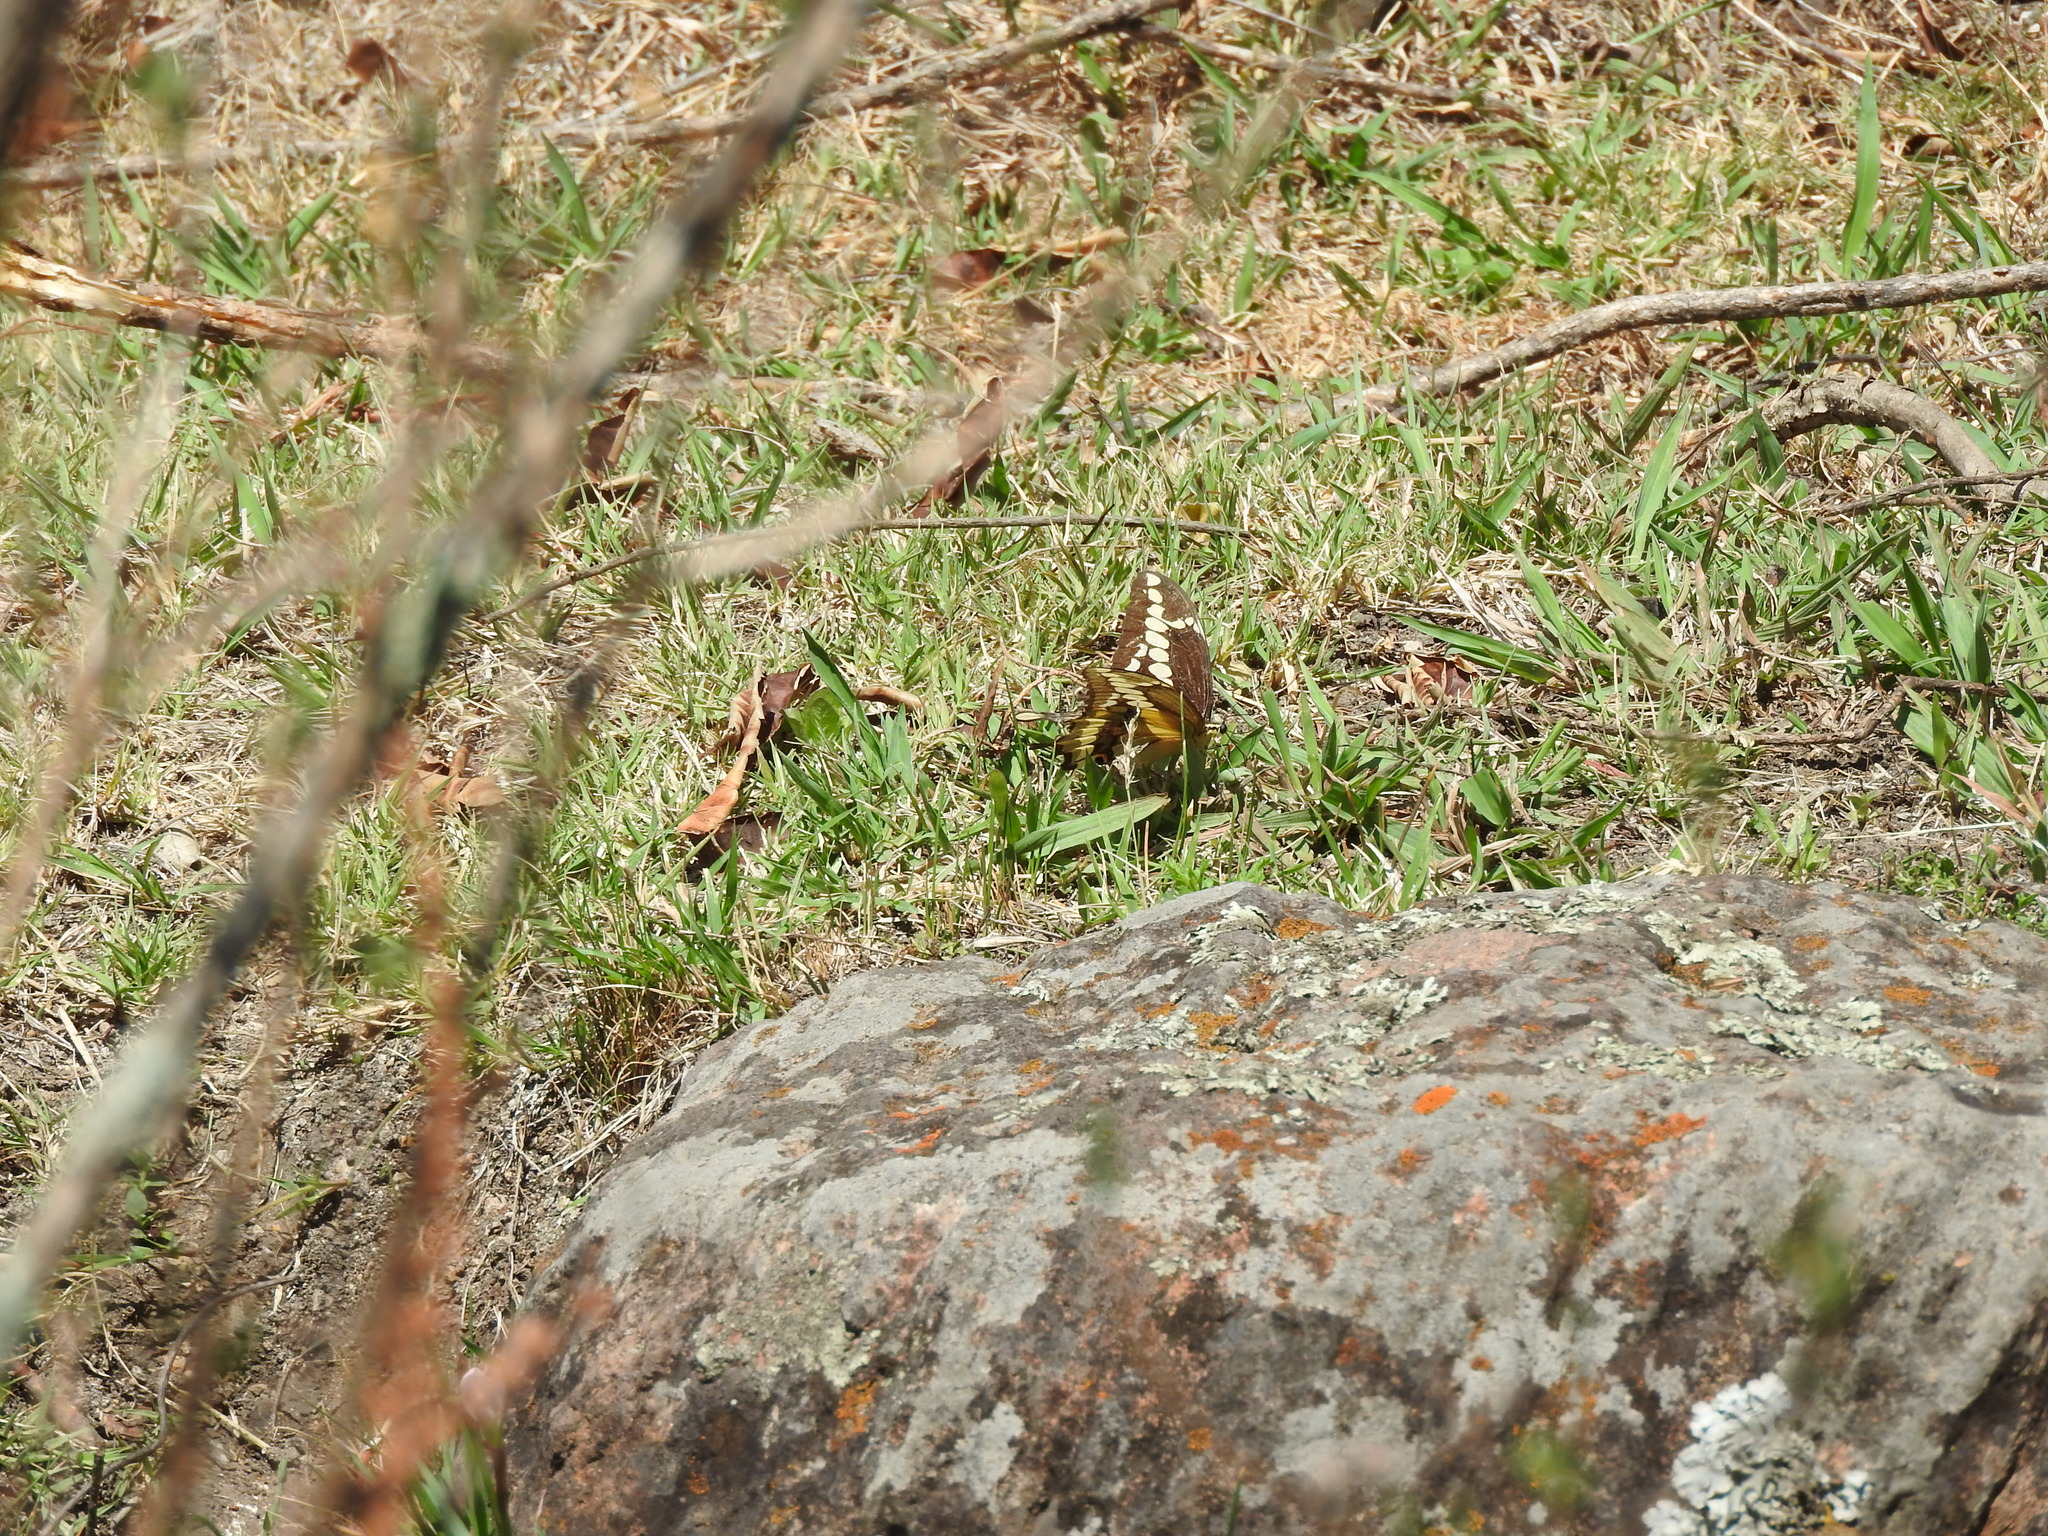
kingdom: Animalia
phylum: Arthropoda
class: Insecta
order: Lepidoptera
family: Papilionidae
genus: Papilio
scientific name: Papilio rumiko
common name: Western giant swallowtail
